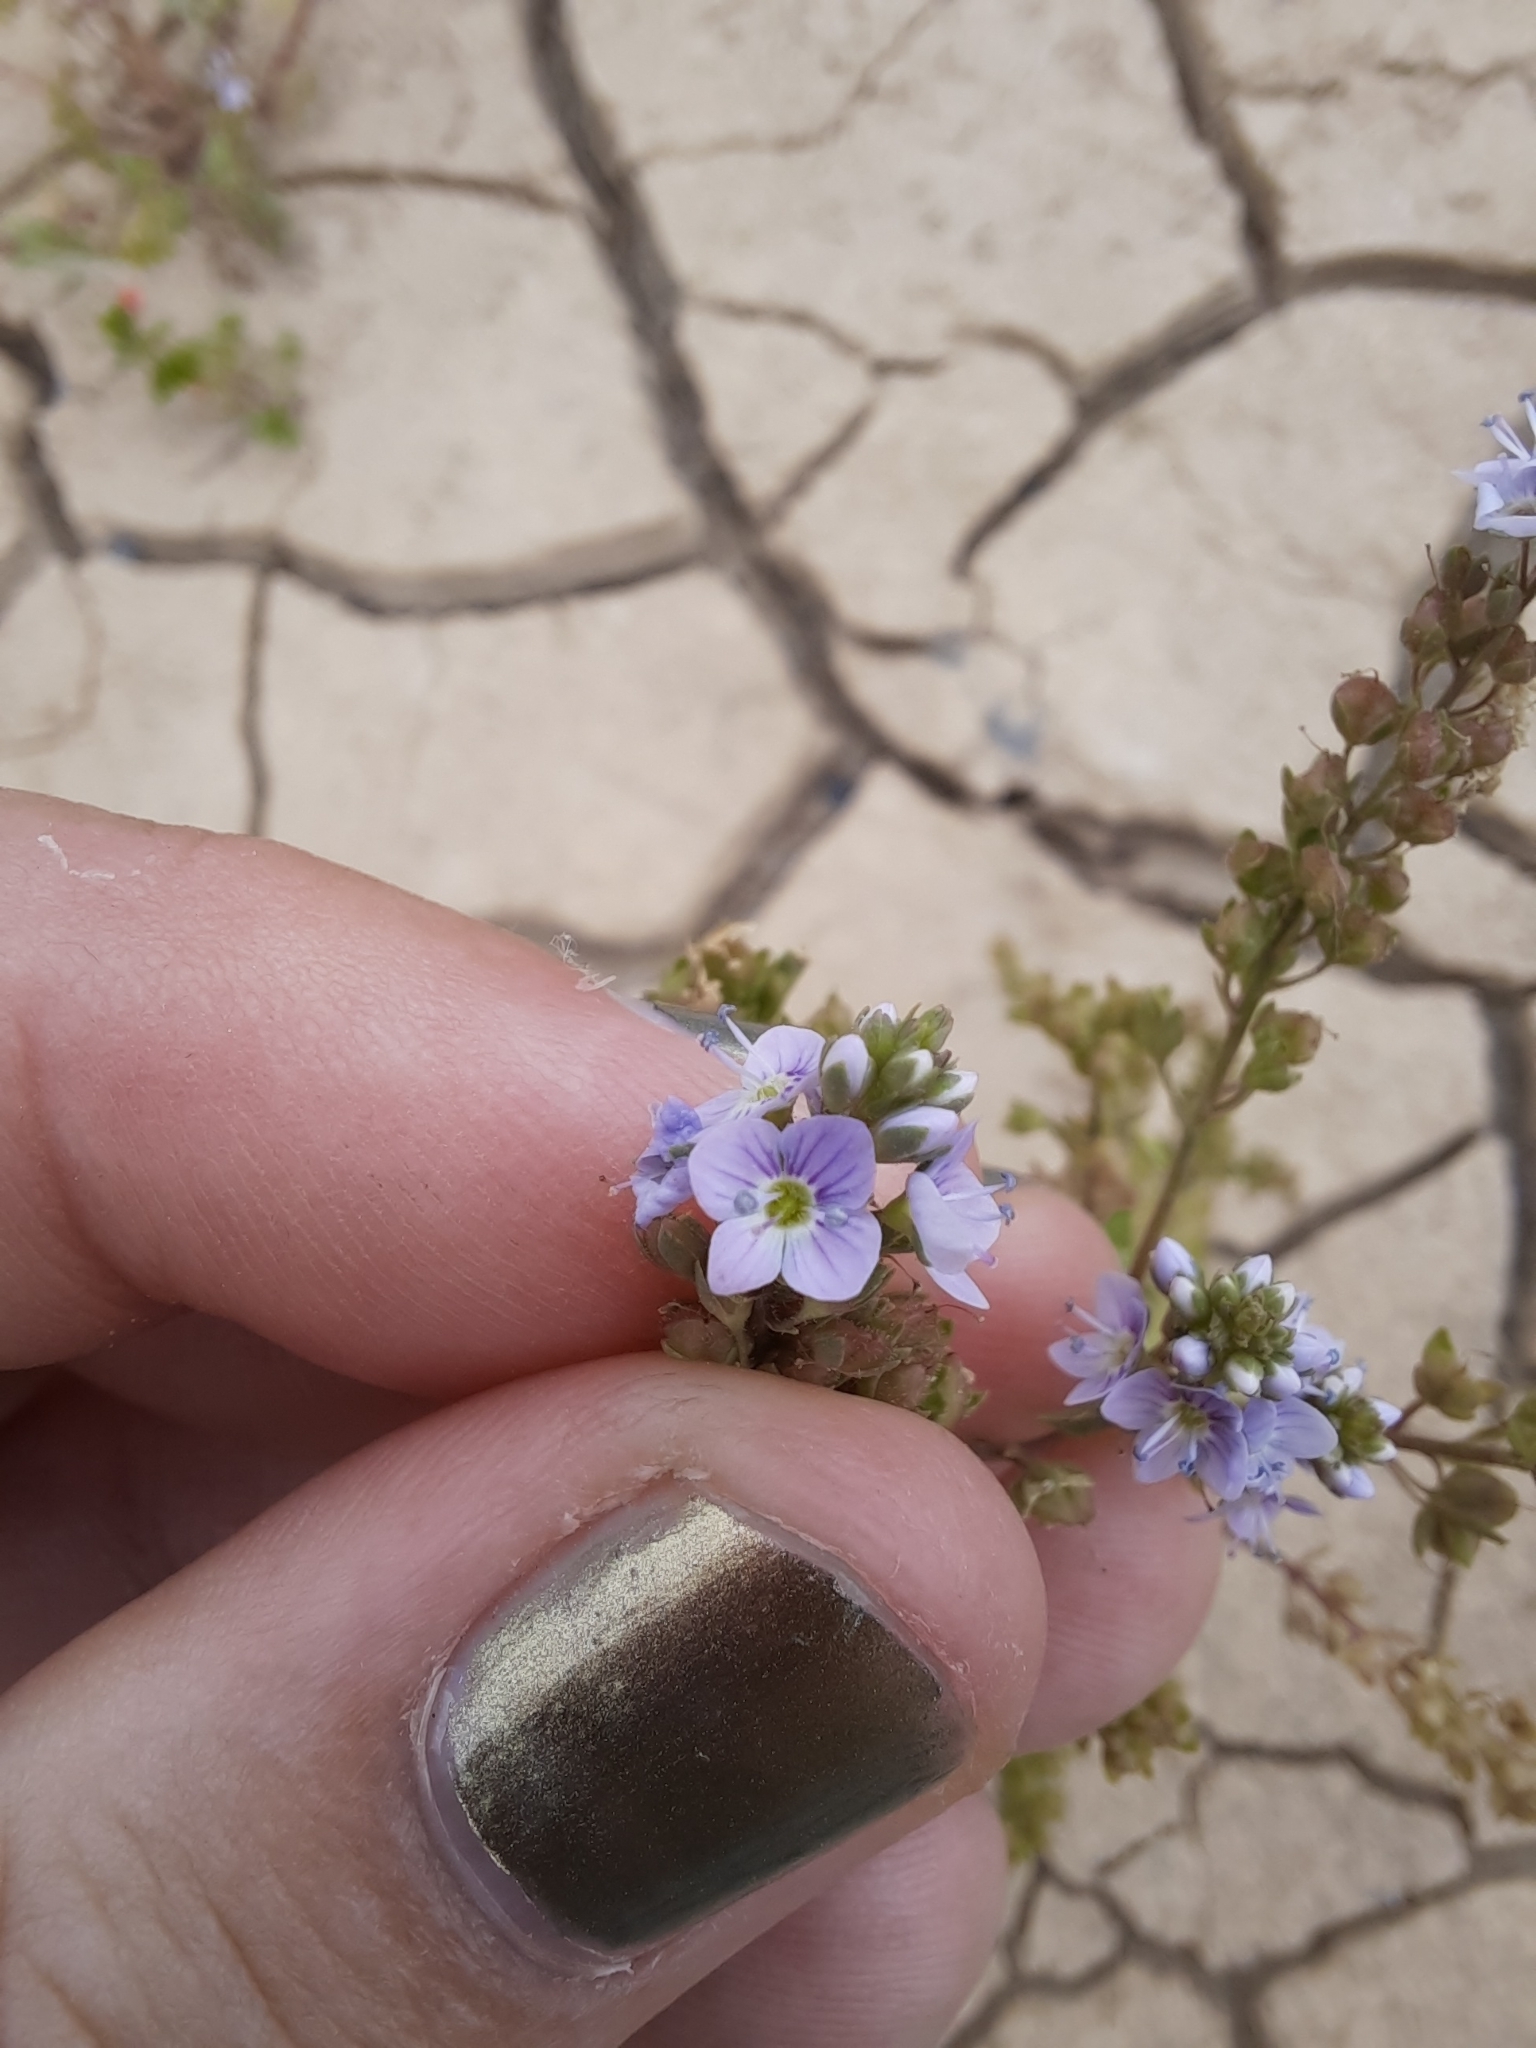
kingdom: Plantae
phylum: Tracheophyta
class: Magnoliopsida
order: Lamiales
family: Plantaginaceae
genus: Veronica
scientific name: Veronica anagallis-aquatica
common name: Water speedwell
